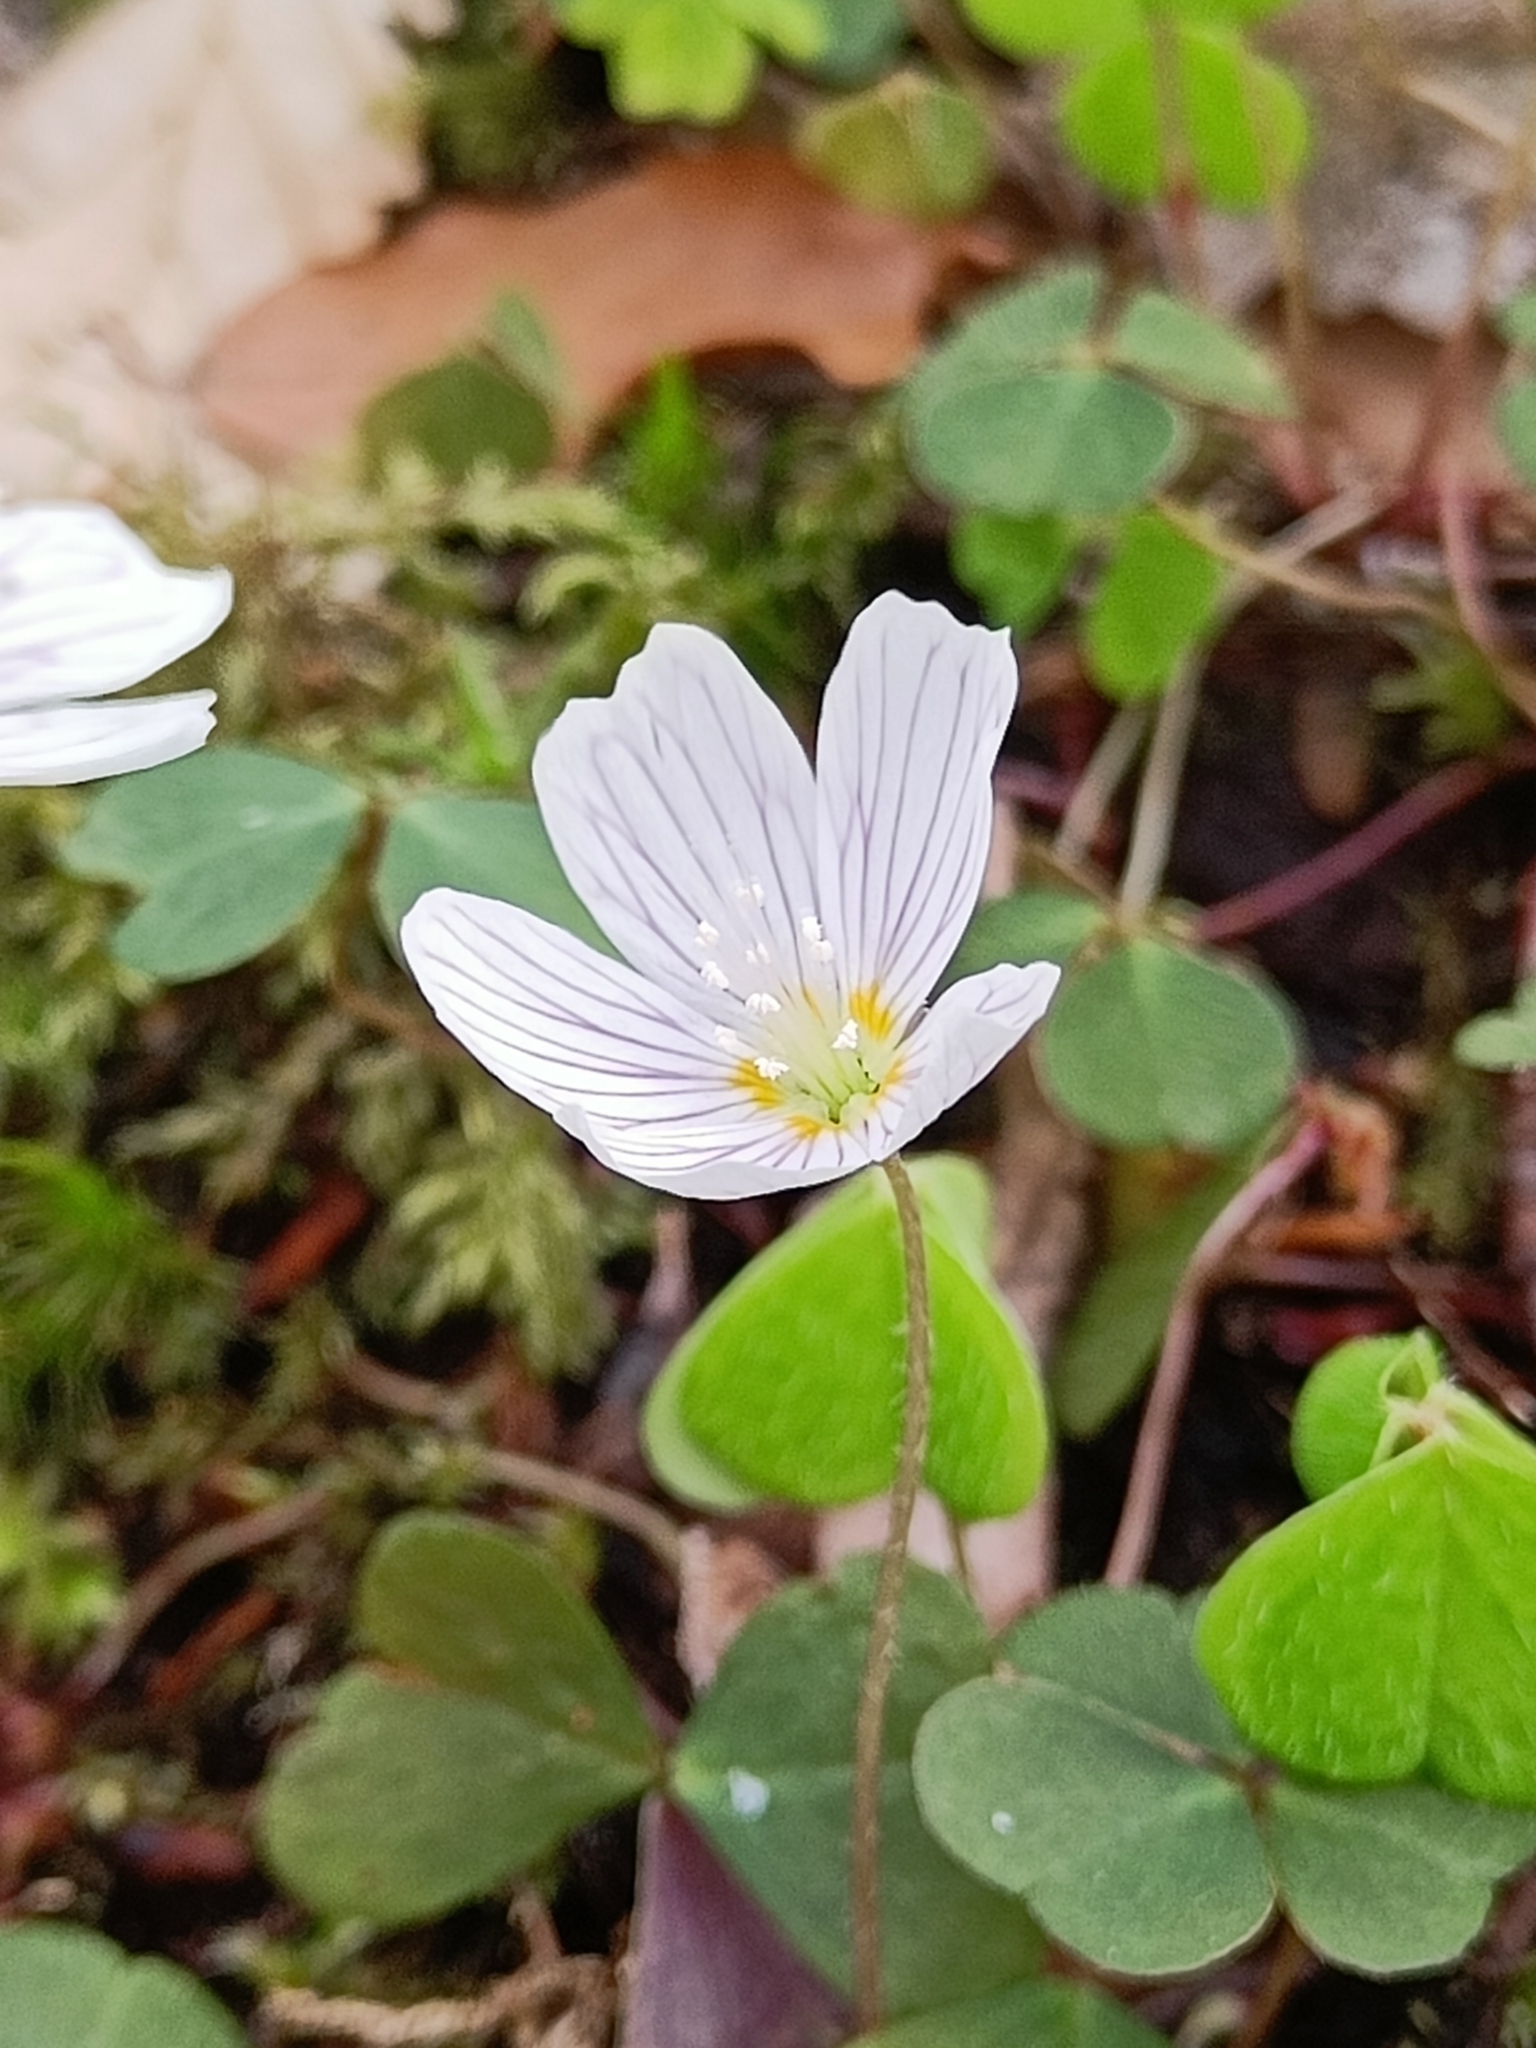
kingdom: Plantae
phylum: Tracheophyta
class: Magnoliopsida
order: Oxalidales
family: Oxalidaceae
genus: Oxalis
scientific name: Oxalis acetosella
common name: Wood-sorrel
